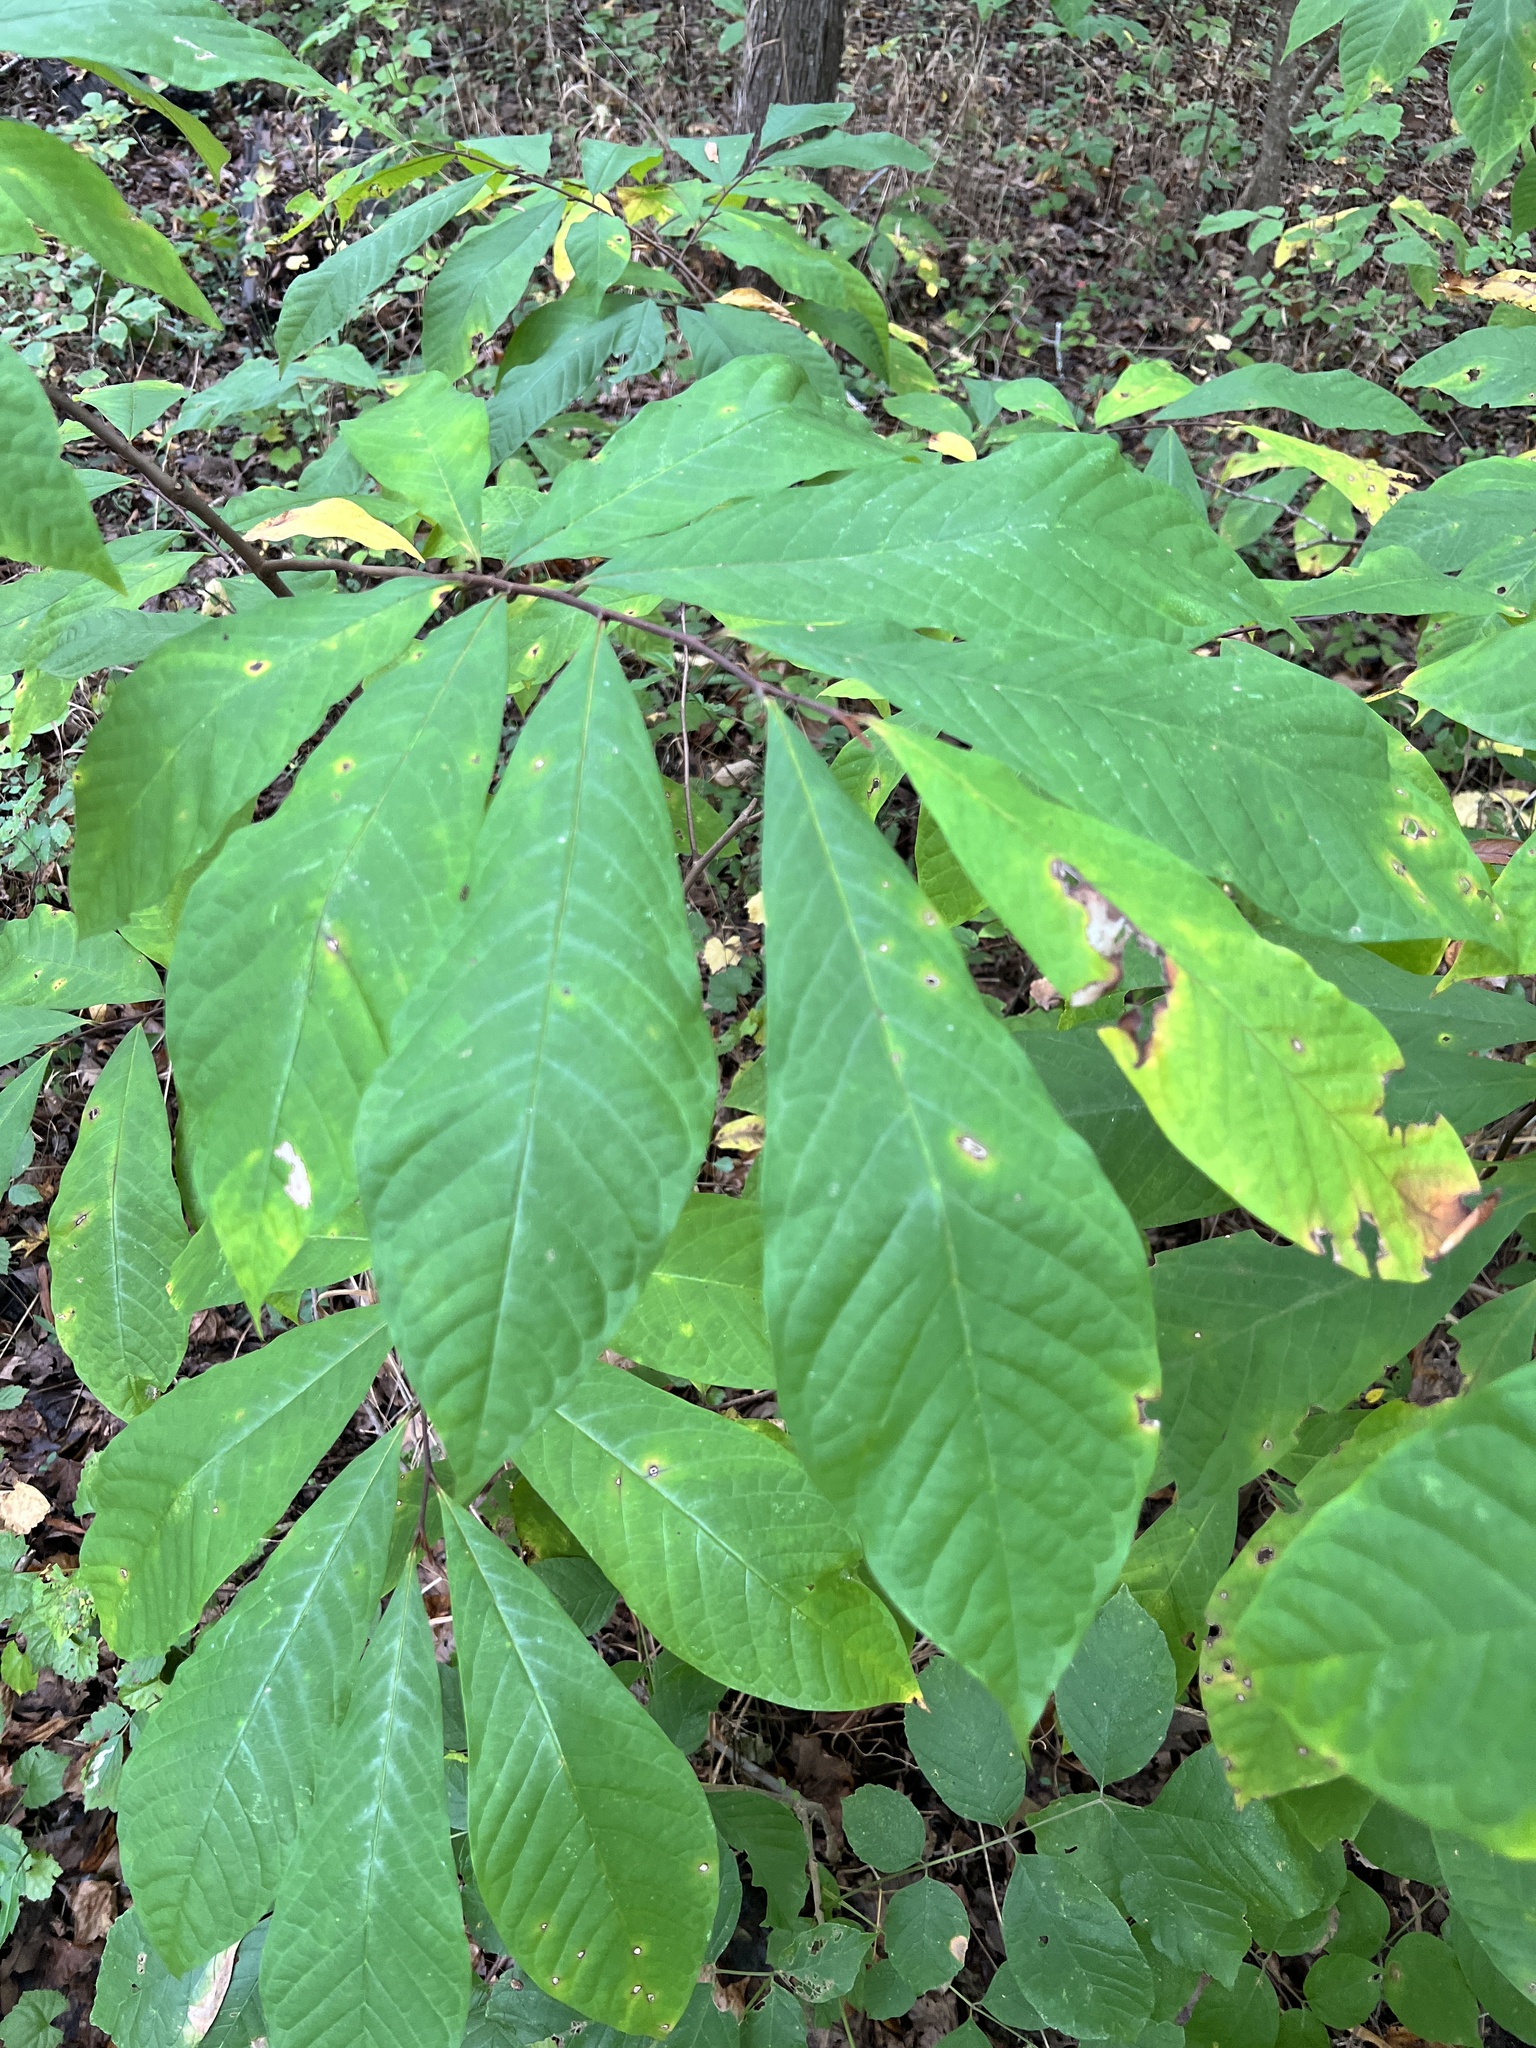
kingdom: Plantae
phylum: Tracheophyta
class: Magnoliopsida
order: Magnoliales
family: Annonaceae
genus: Asimina
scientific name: Asimina triloba
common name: Dog-banana
